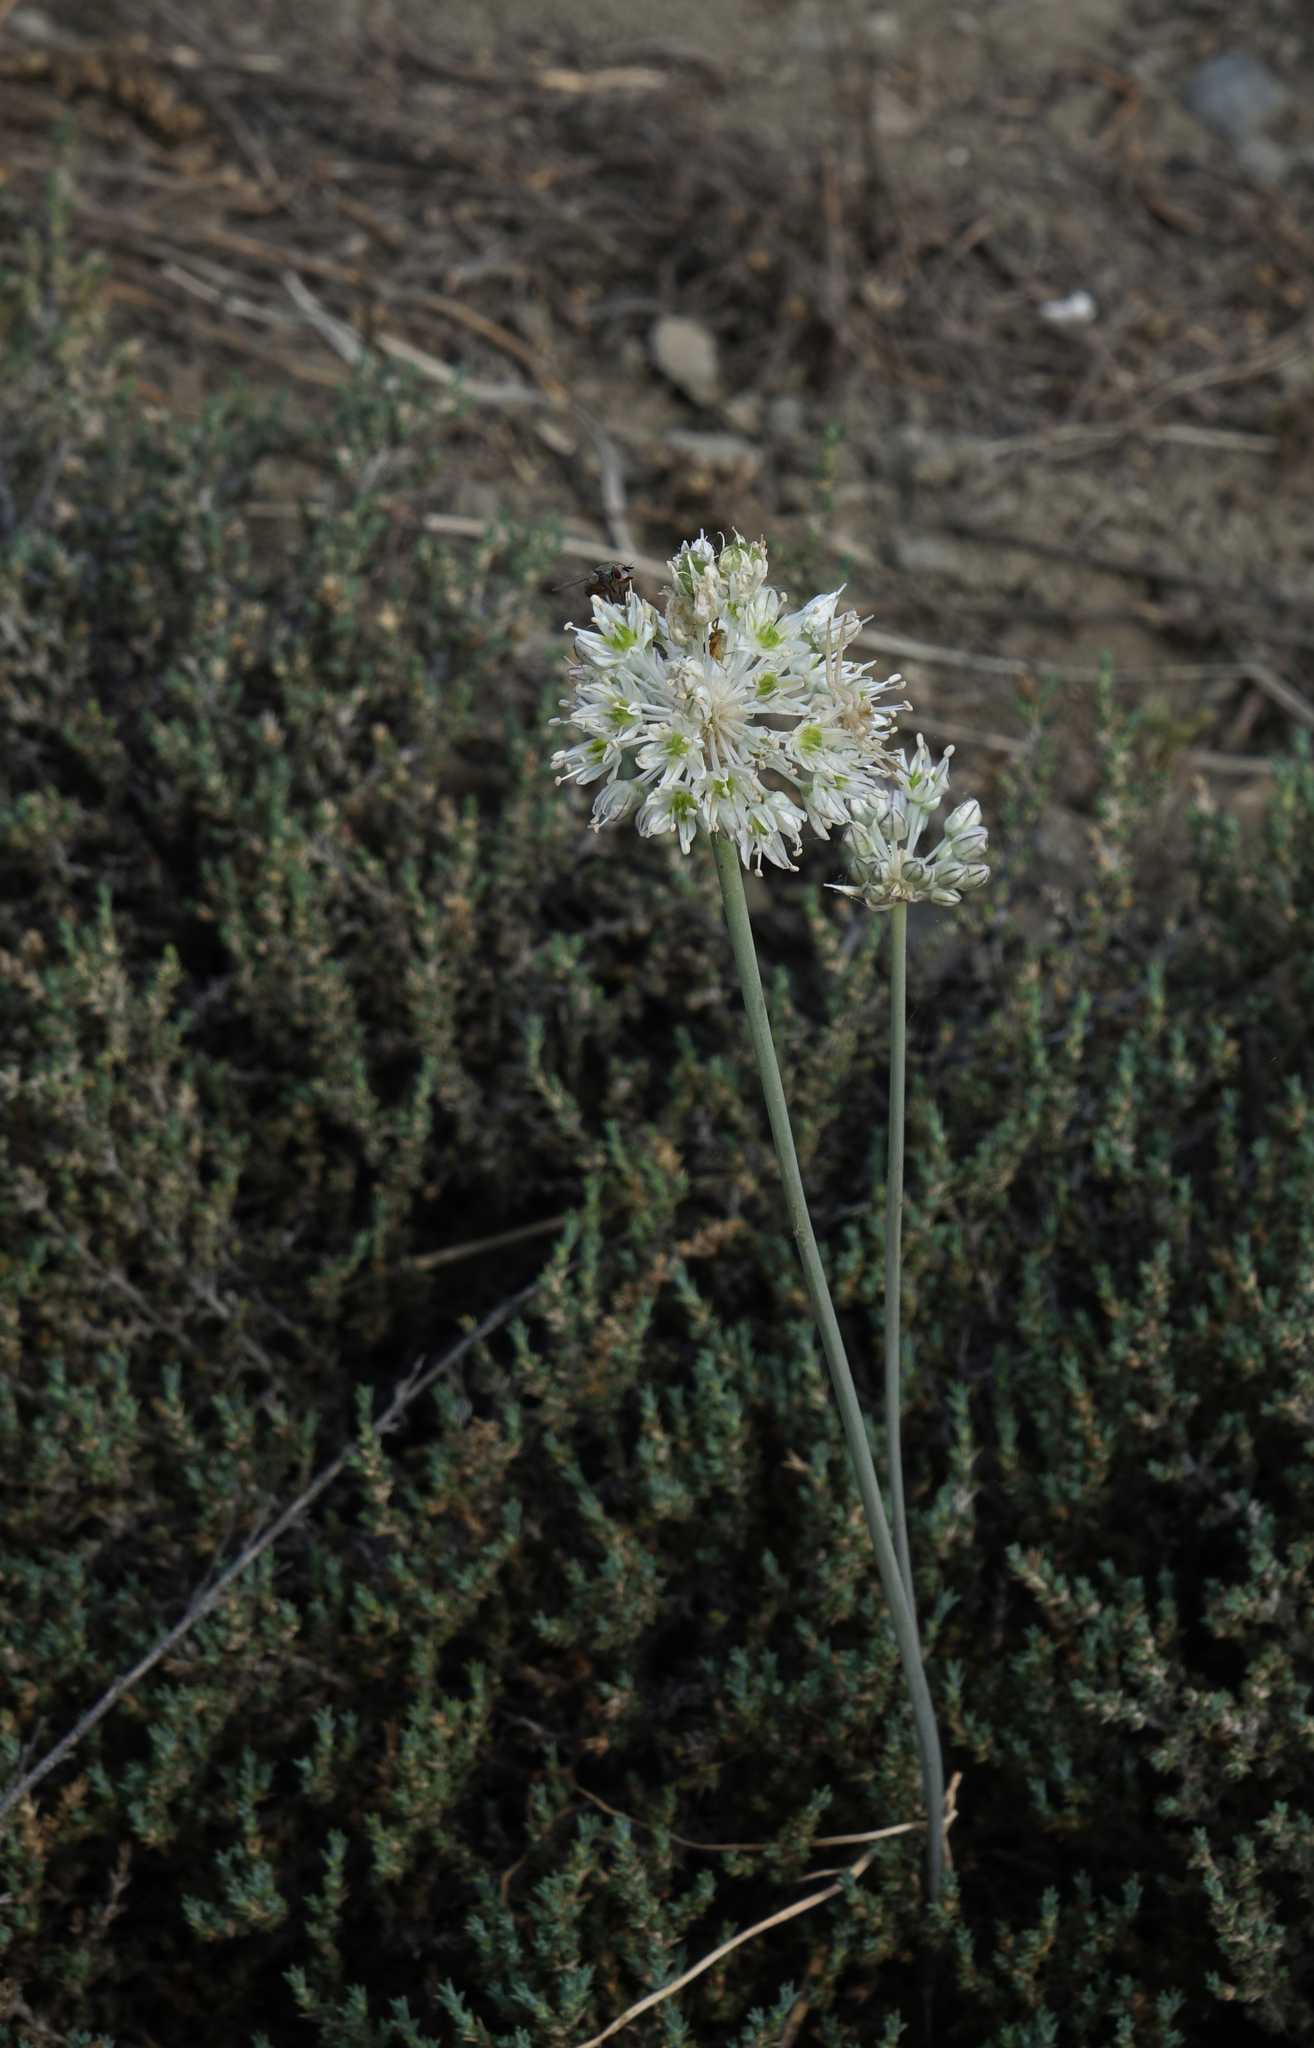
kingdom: Plantae
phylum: Tracheophyta
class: Liliopsida
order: Asparagales
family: Amaryllidaceae
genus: Allium
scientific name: Allium delicatulum
